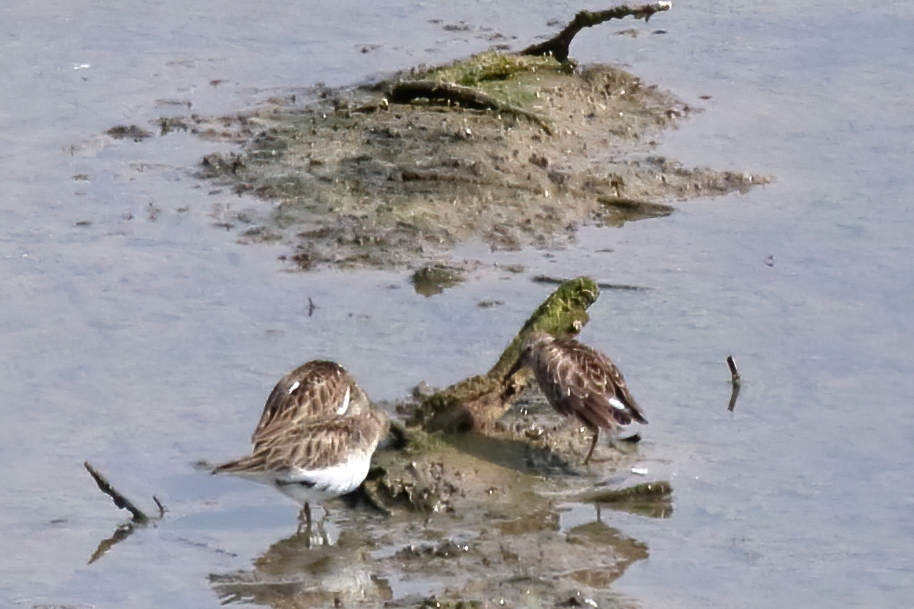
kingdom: Animalia
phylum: Chordata
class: Aves
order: Charadriiformes
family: Scolopacidae
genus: Calidris
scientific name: Calidris minutilla
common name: Least sandpiper
